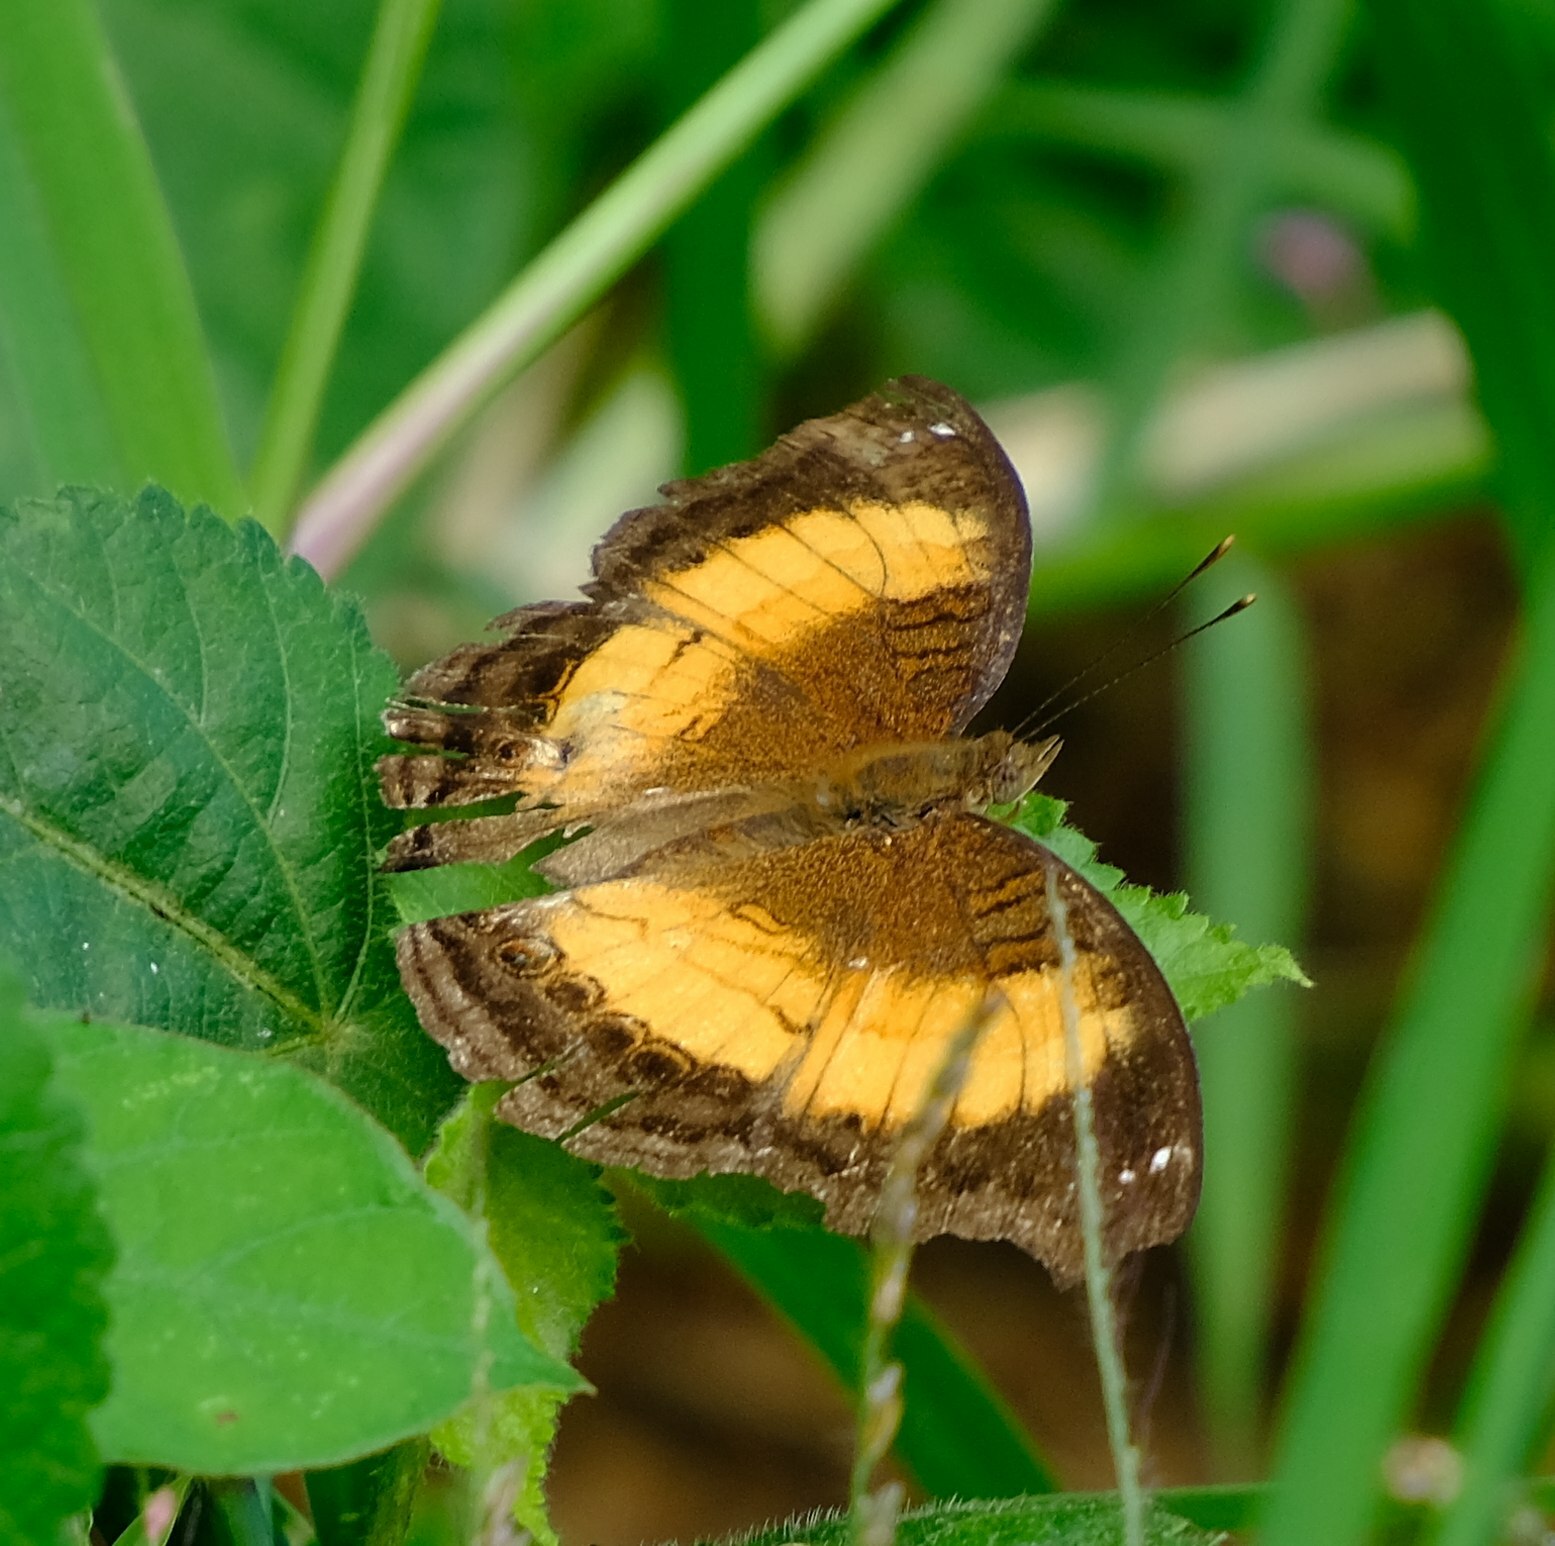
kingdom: Animalia
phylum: Arthropoda
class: Insecta
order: Lepidoptera
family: Nymphalidae
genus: Junonia
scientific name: Junonia terea
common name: Soldier pansy
